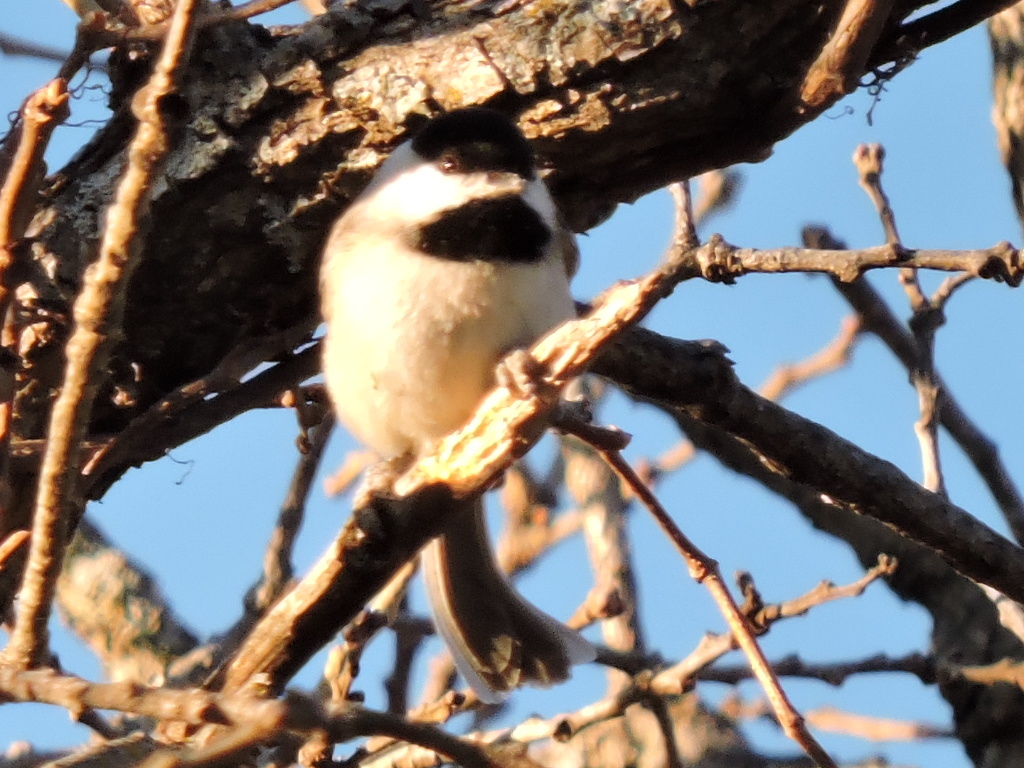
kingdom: Animalia
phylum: Chordata
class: Aves
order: Passeriformes
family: Paridae
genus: Poecile
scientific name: Poecile carolinensis
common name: Carolina chickadee
